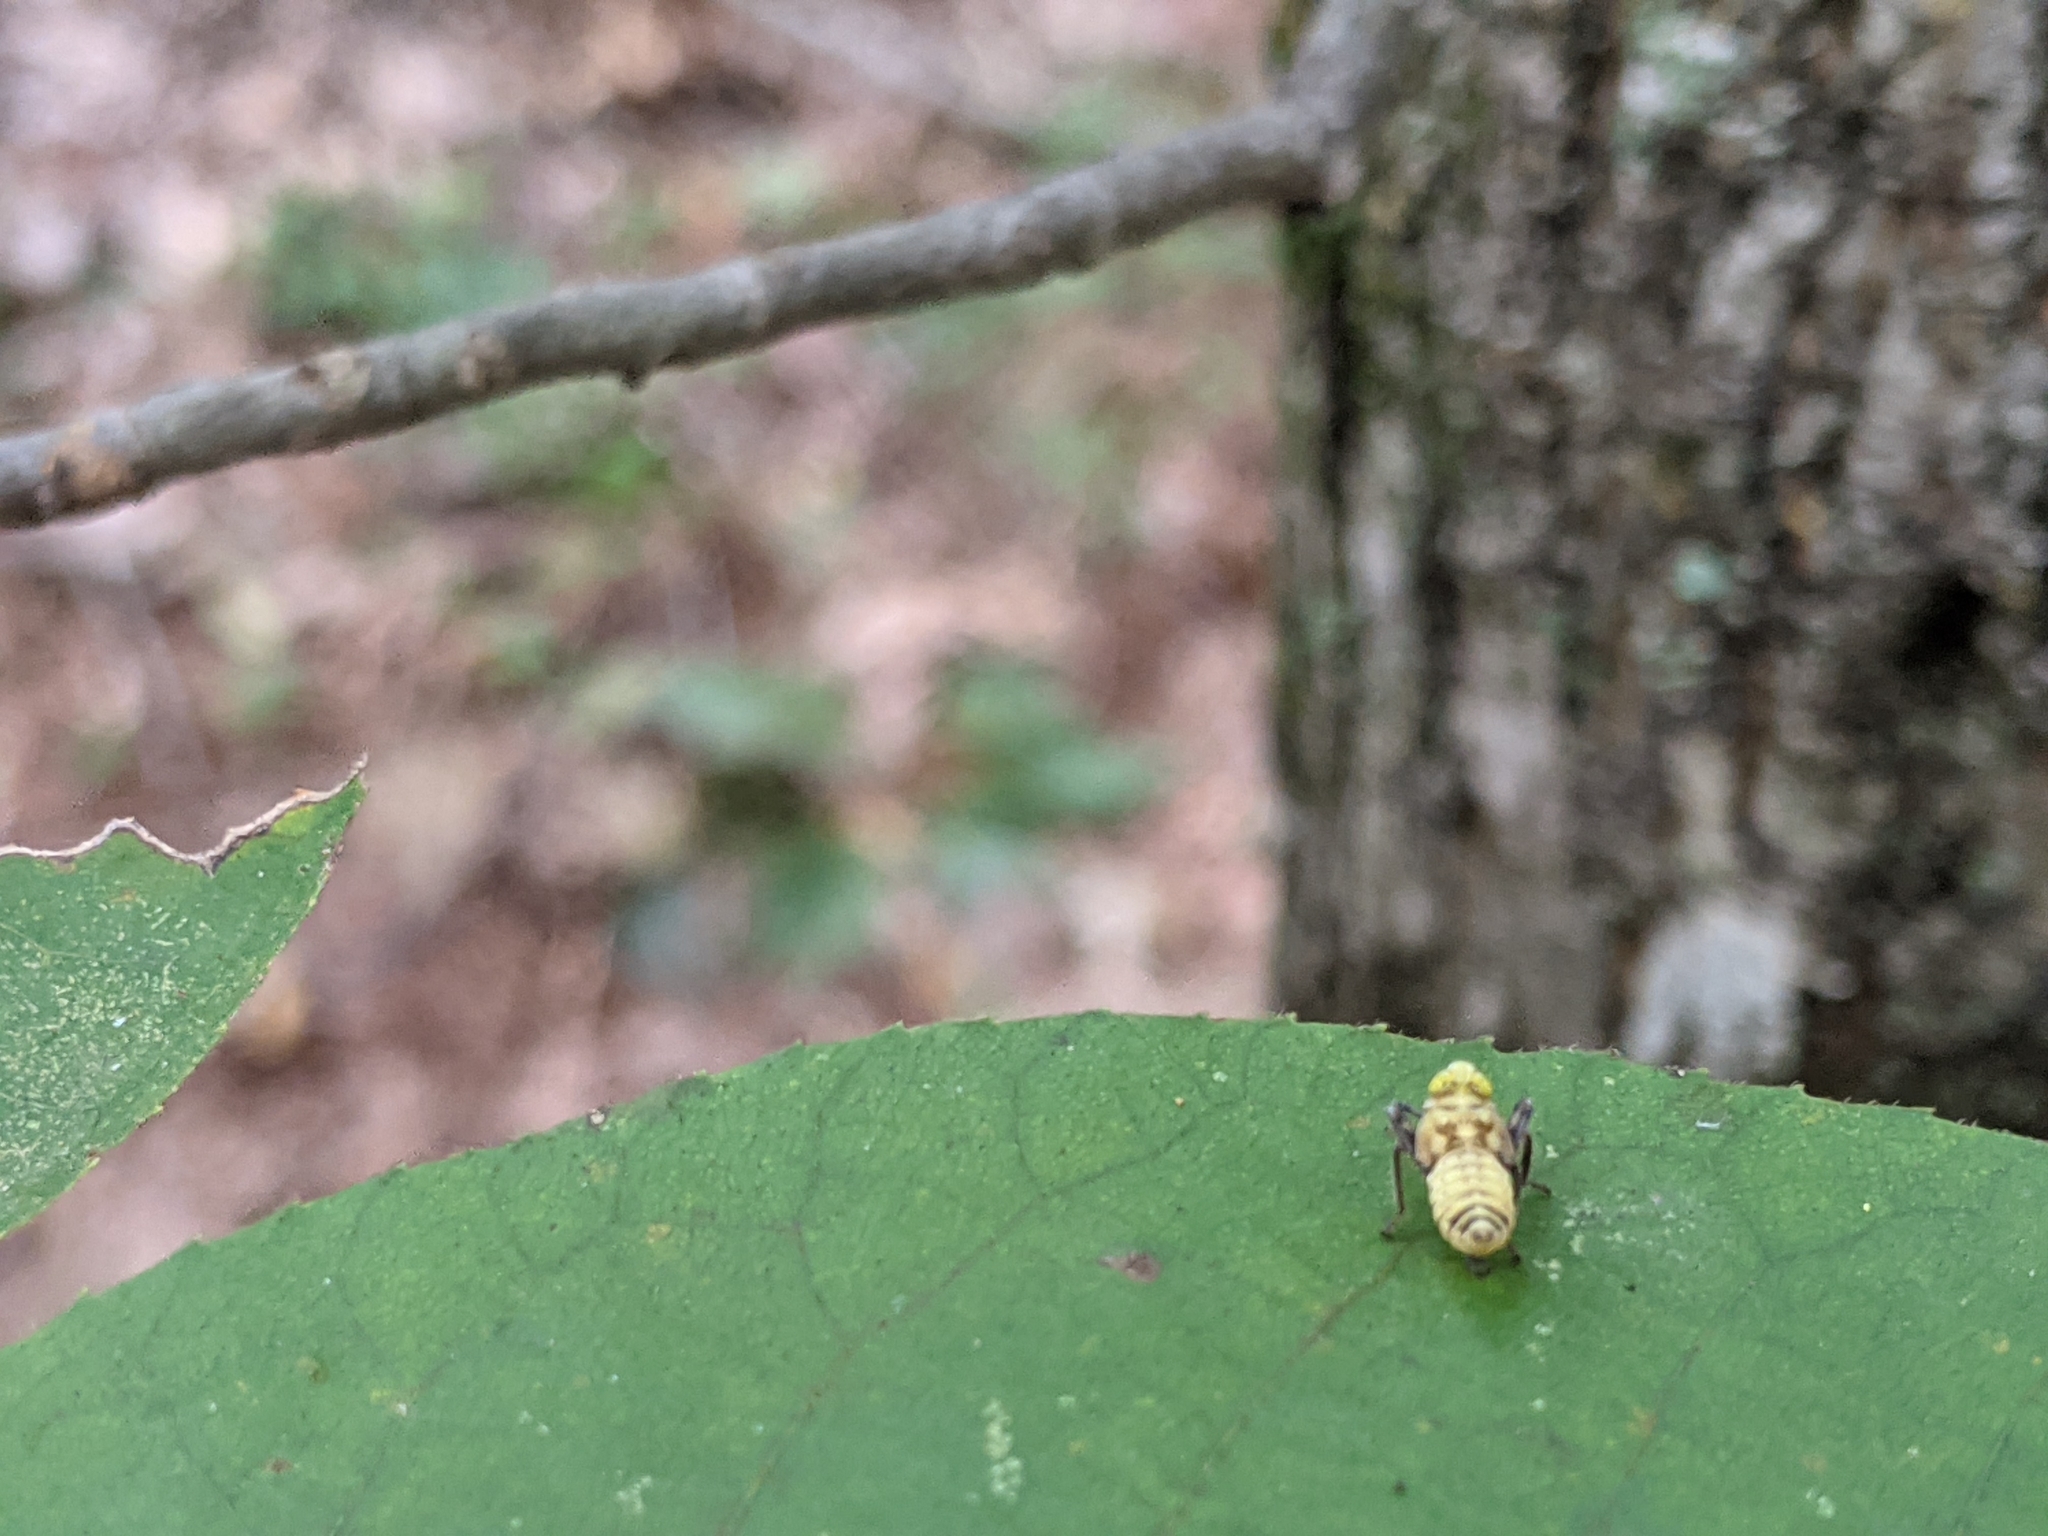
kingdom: Animalia
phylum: Arthropoda
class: Insecta
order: Hemiptera
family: Cicadellidae
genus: Jikradia
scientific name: Jikradia olitoria
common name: Coppery leafhopper
